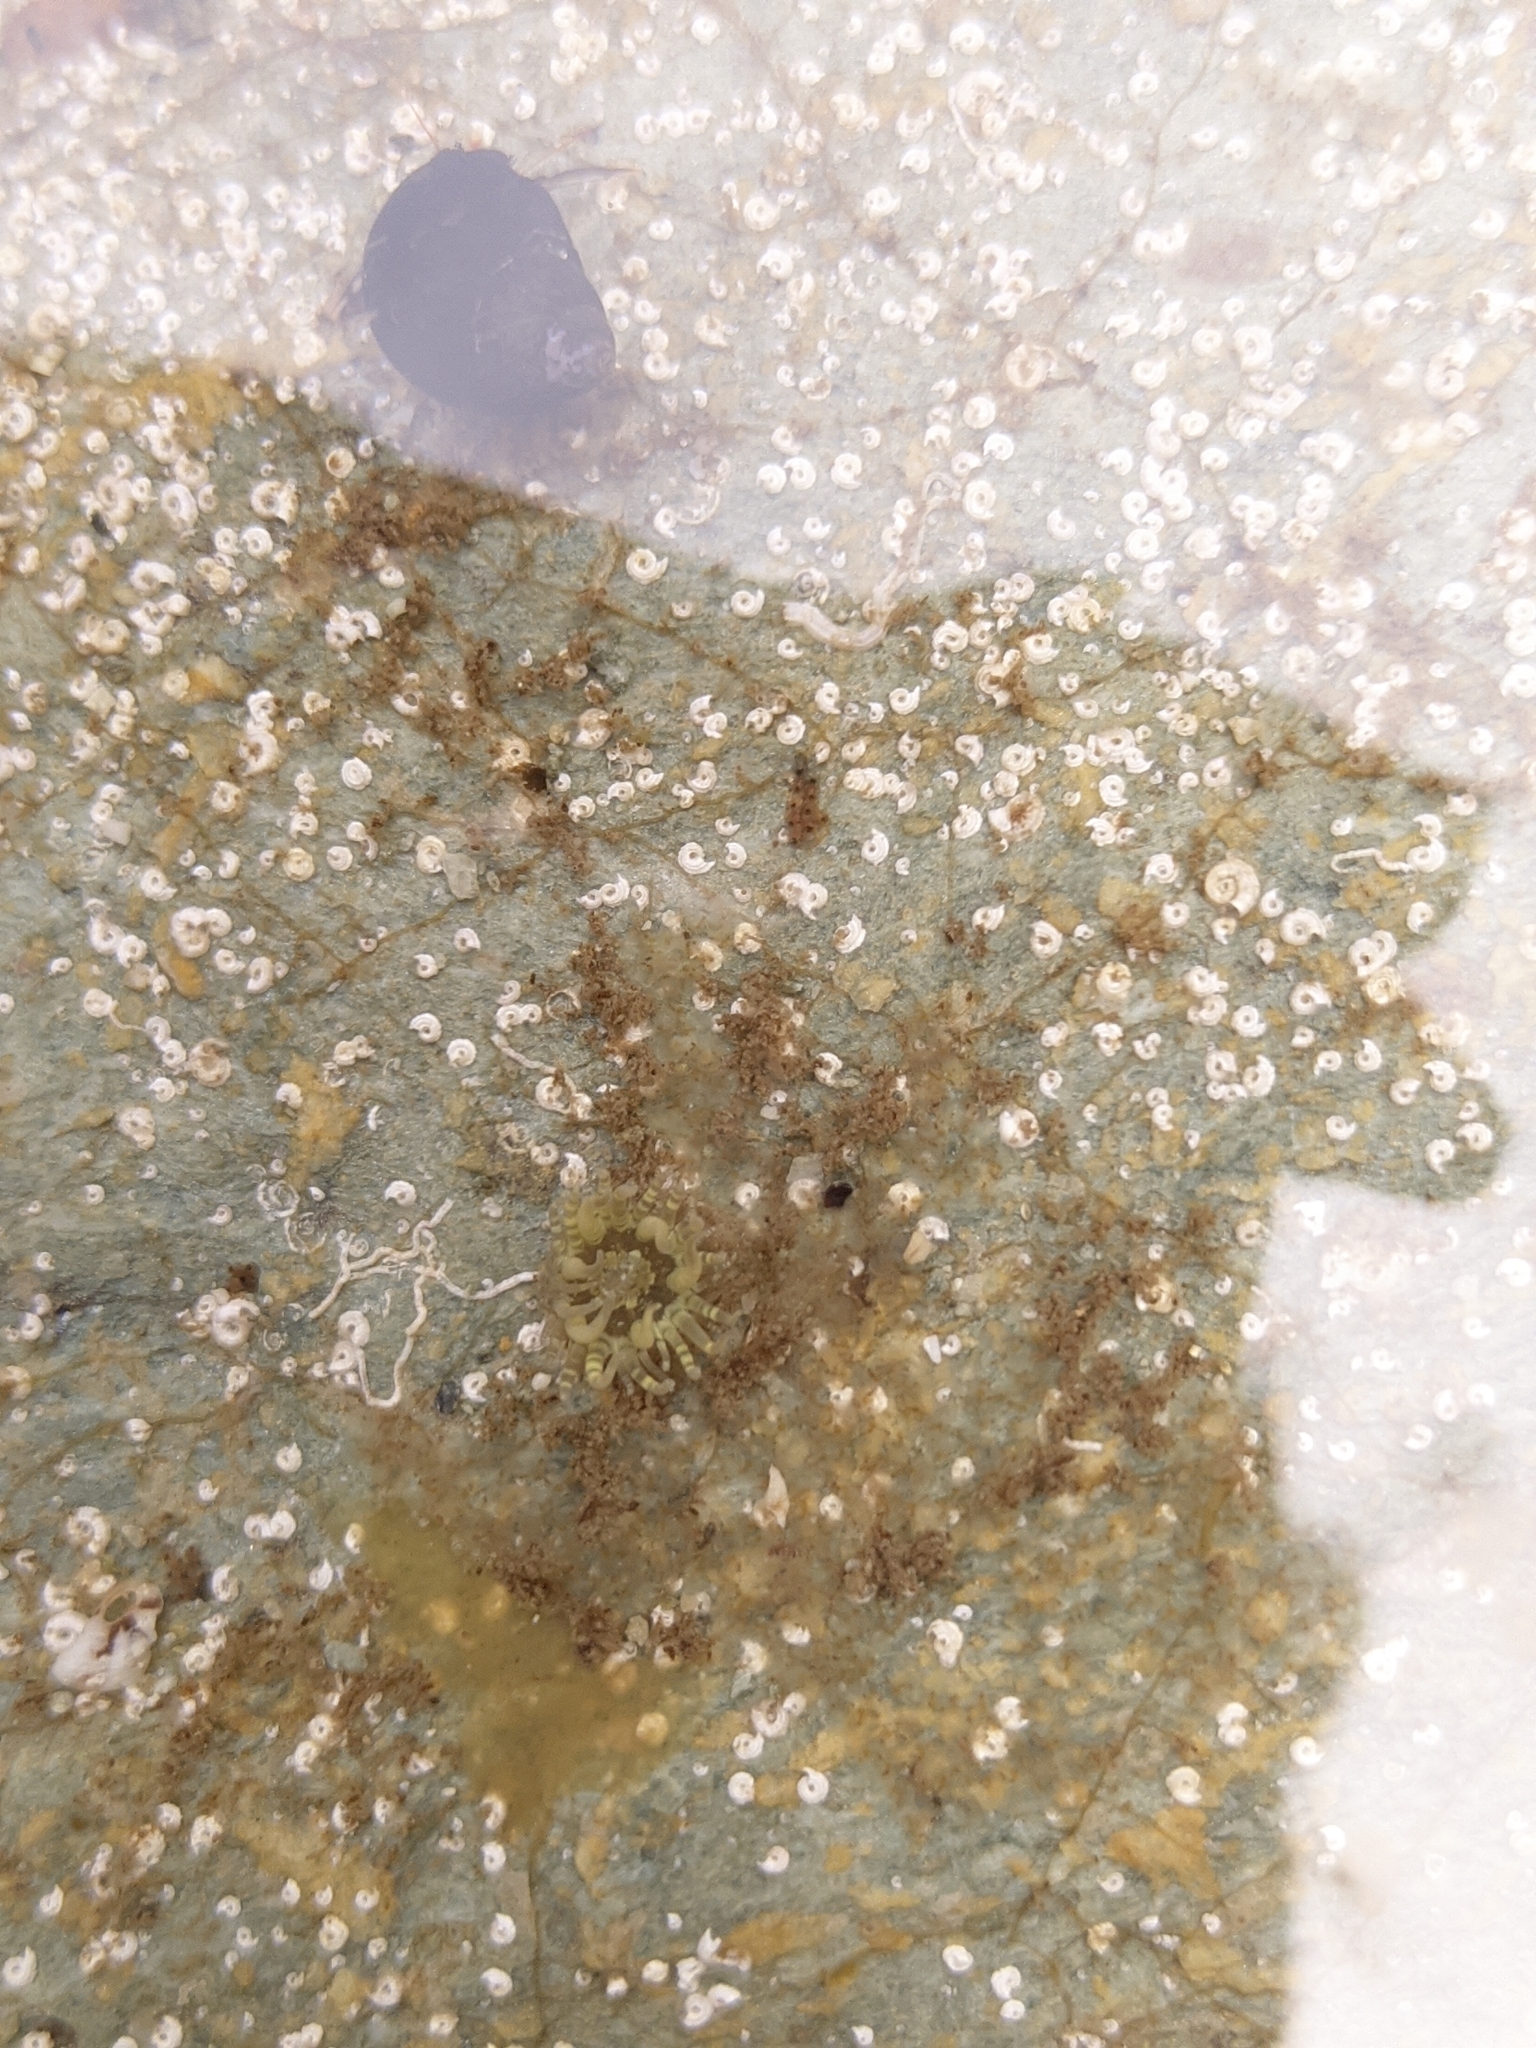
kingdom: Animalia
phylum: Cnidaria
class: Anthozoa
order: Actiniaria
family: Aiptasiidae
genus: Exaiptasia
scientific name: Exaiptasia diaphana
